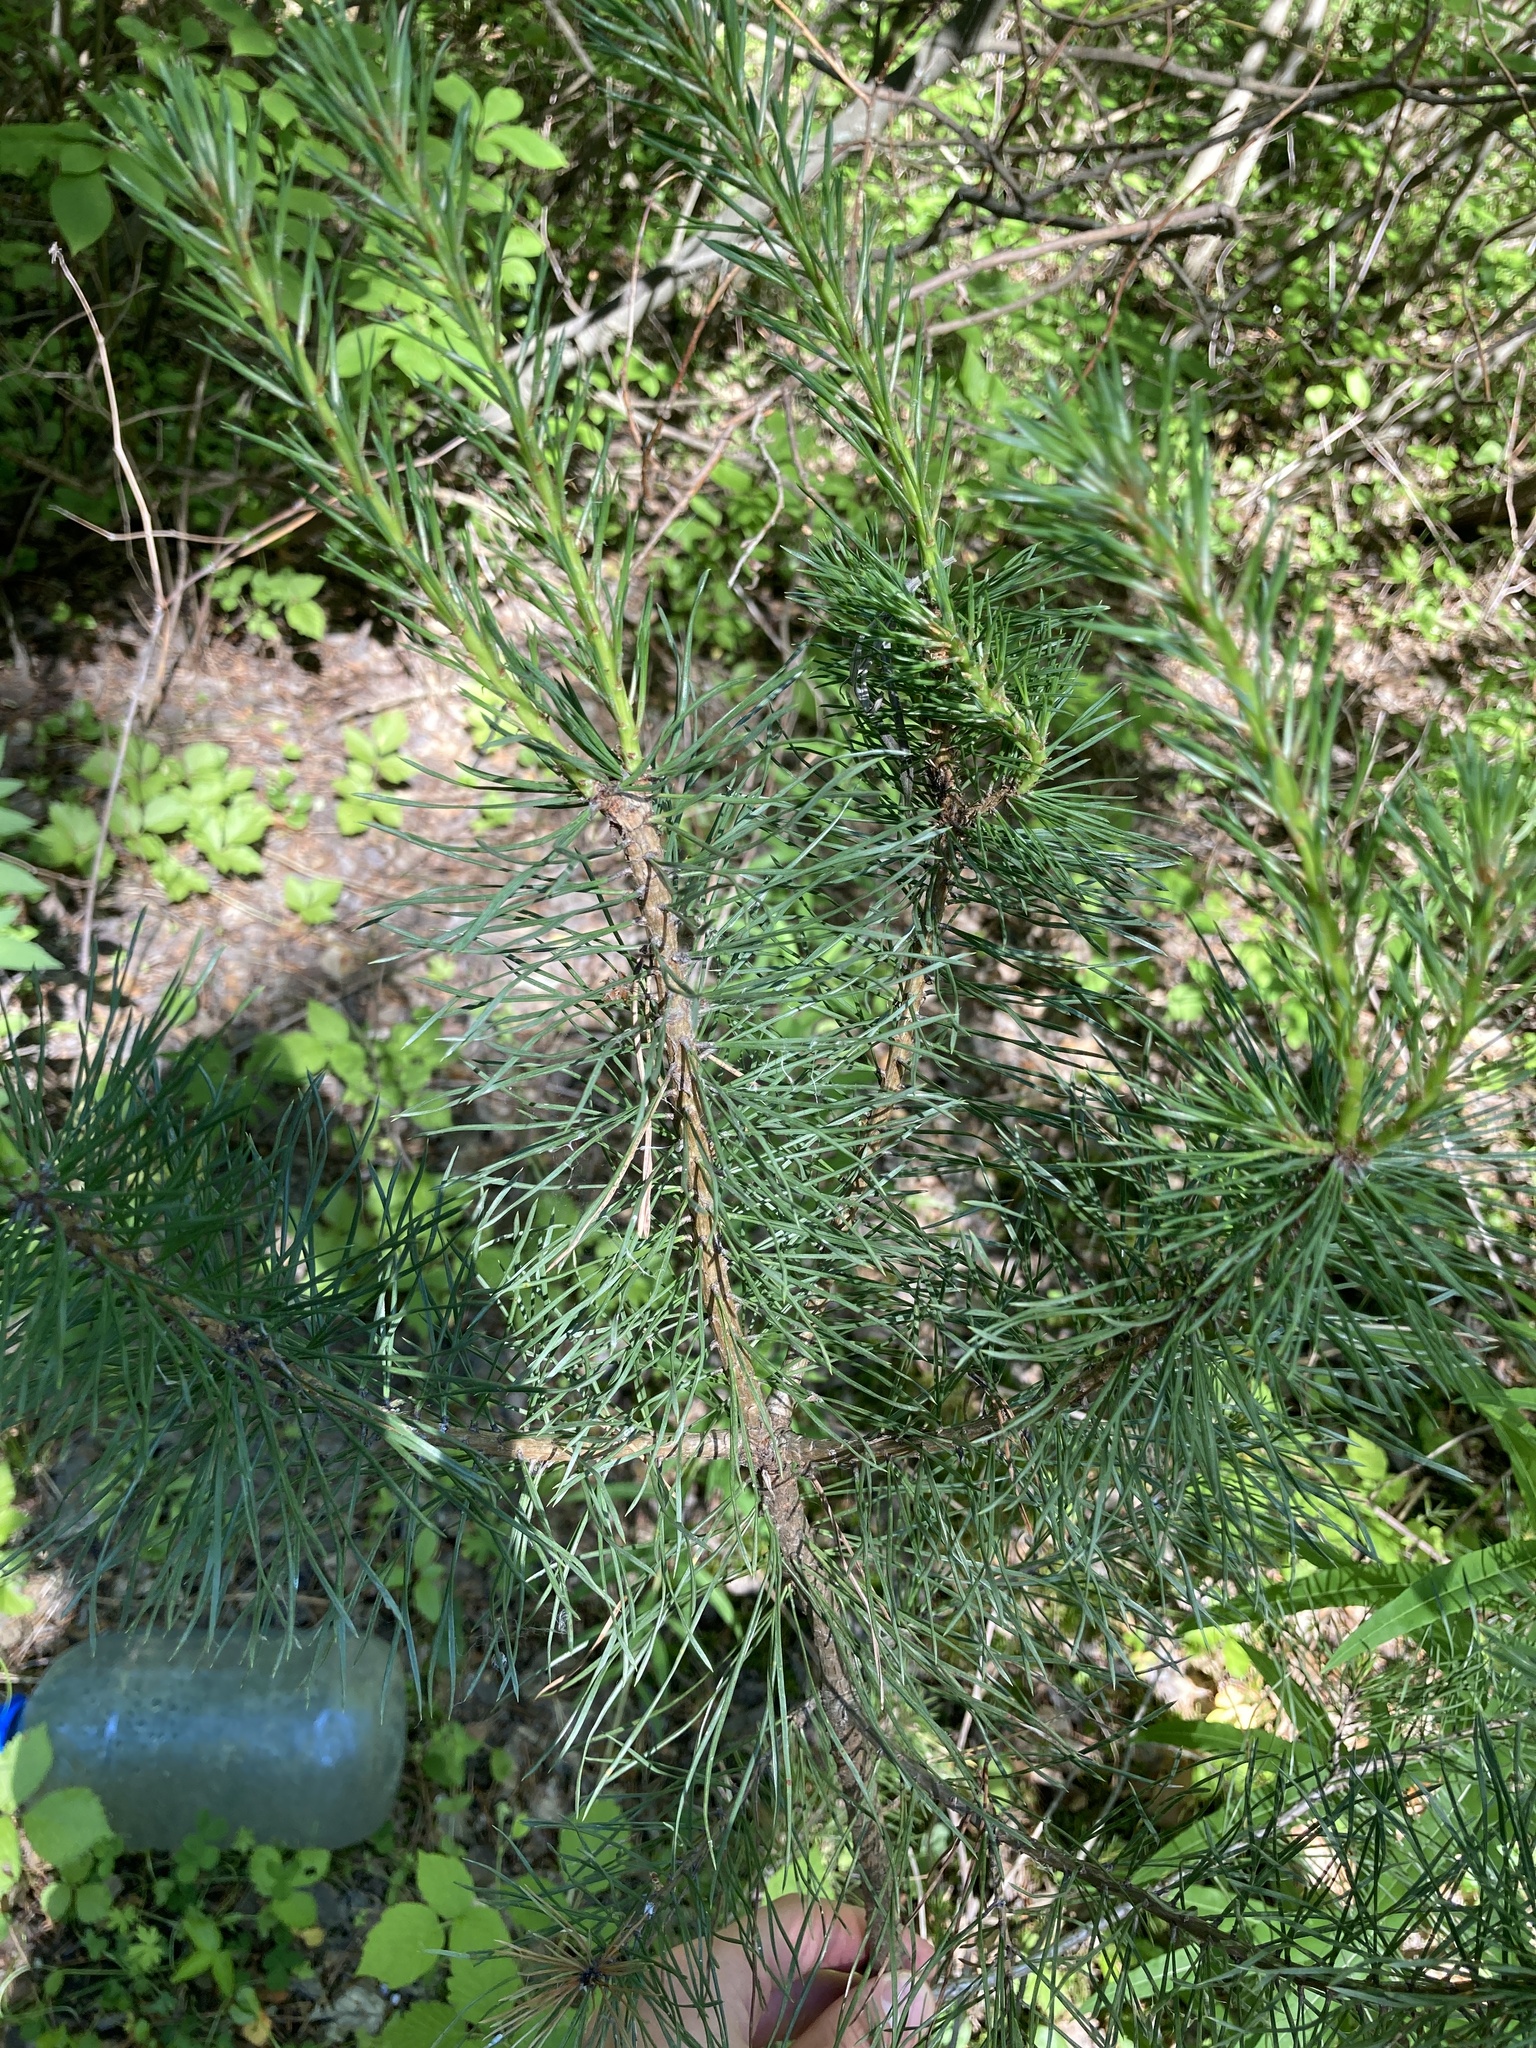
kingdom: Plantae
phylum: Tracheophyta
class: Pinopsida
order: Pinales
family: Pinaceae
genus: Pinus
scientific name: Pinus sylvestris
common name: Scots pine
